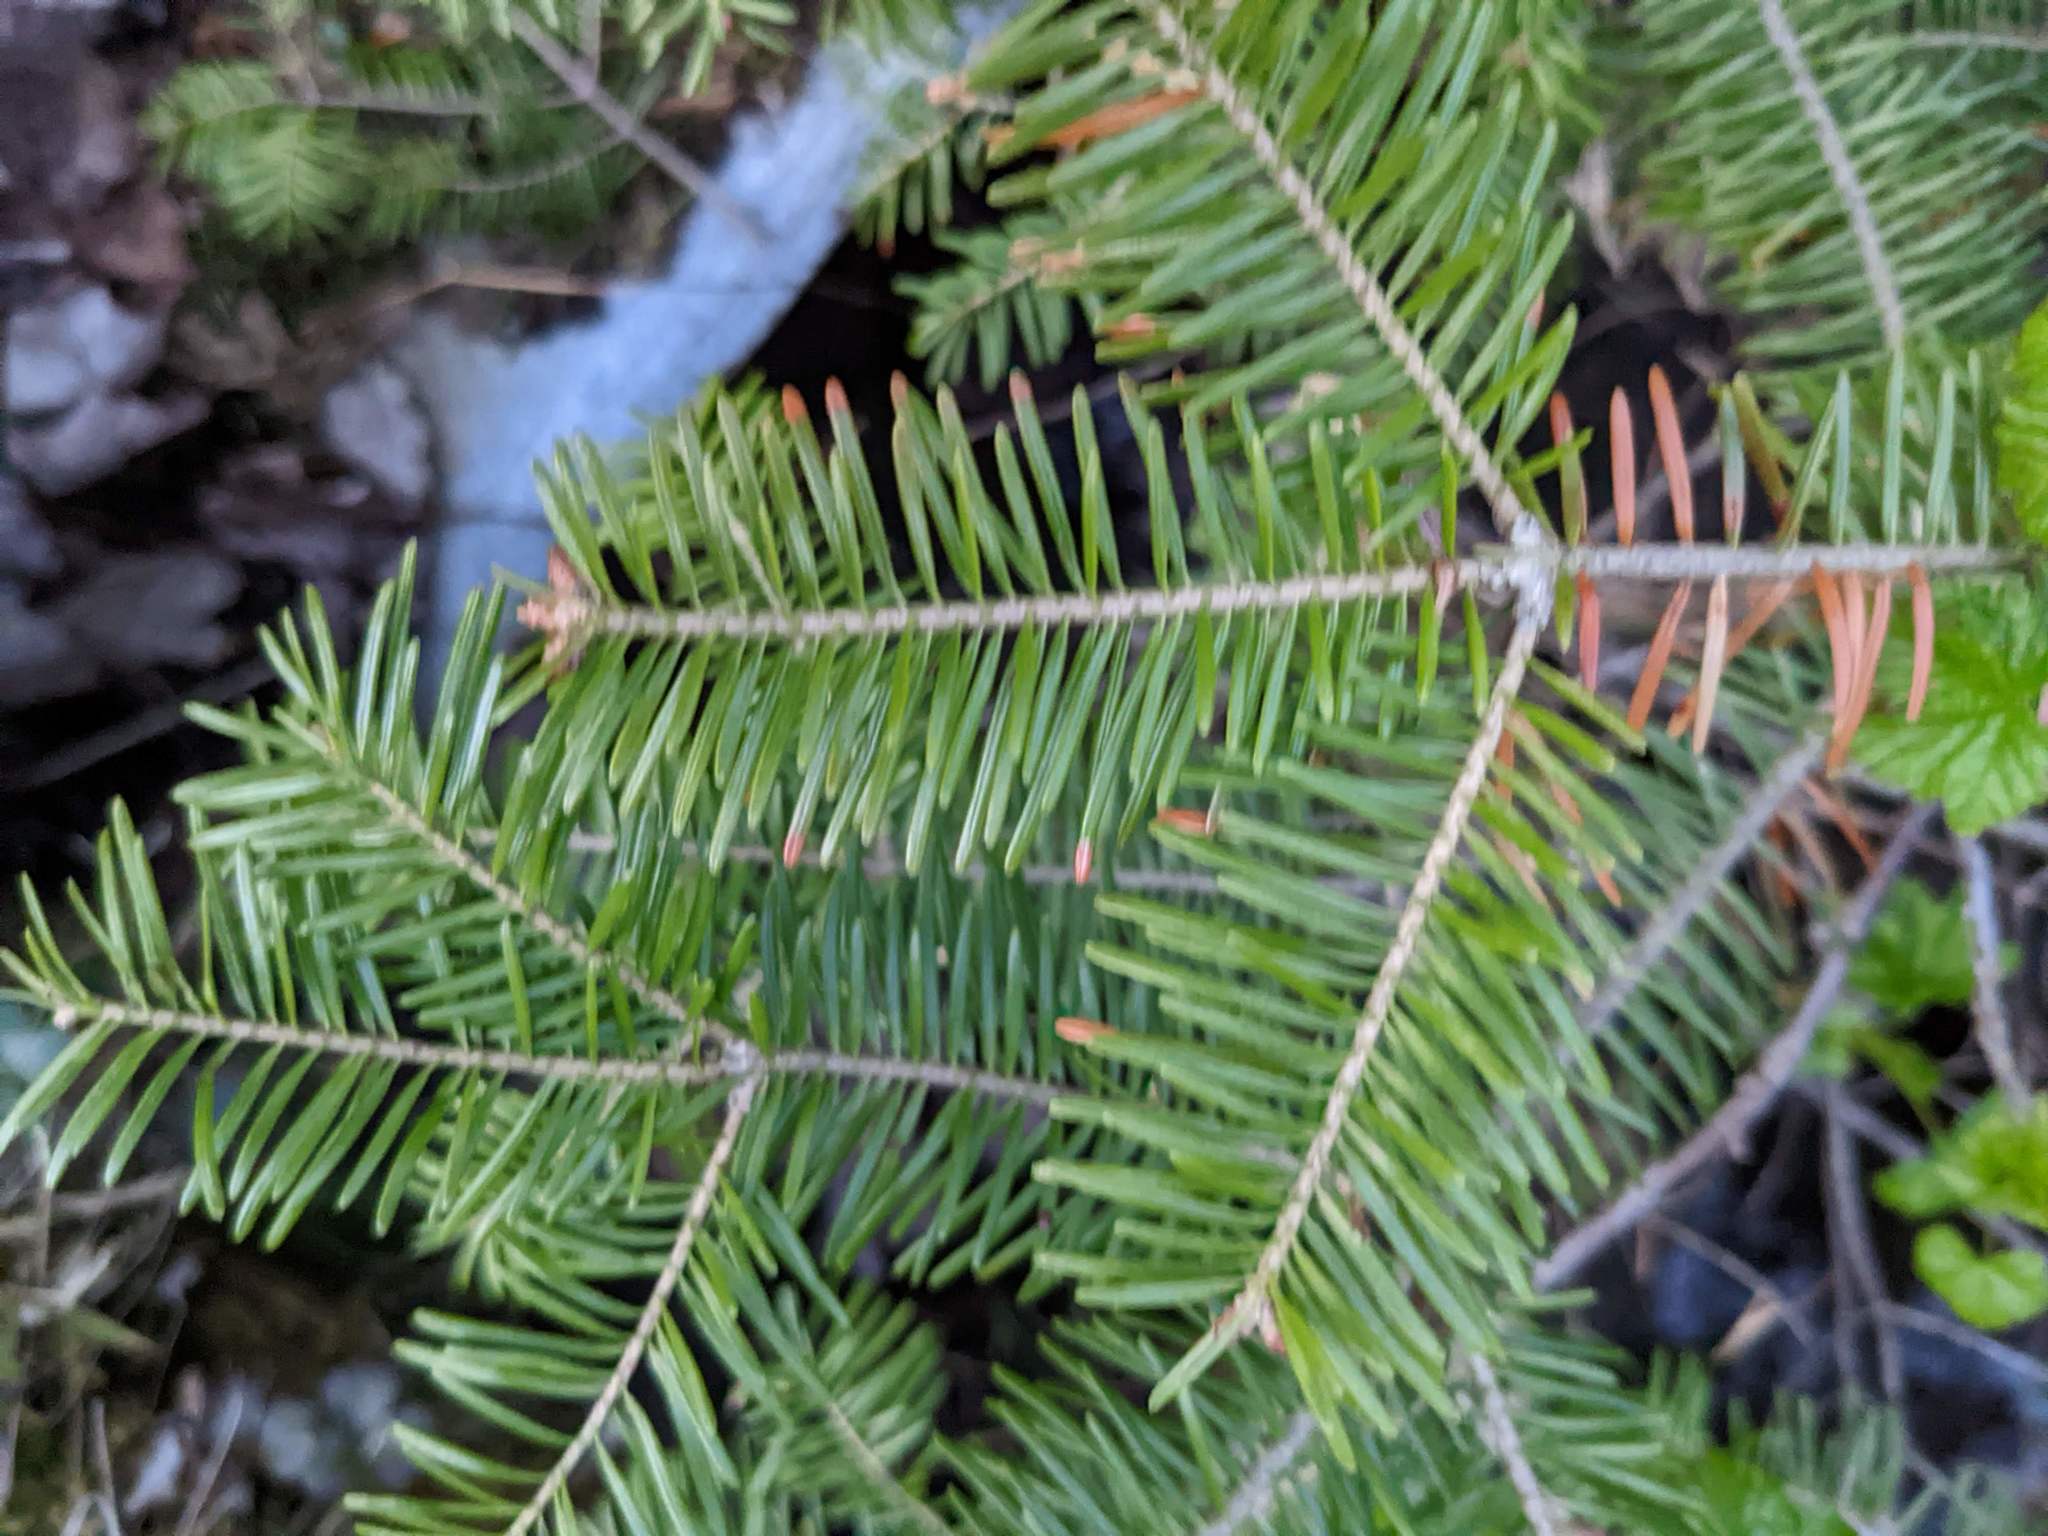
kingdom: Plantae
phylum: Tracheophyta
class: Pinopsida
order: Pinales
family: Pinaceae
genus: Abies
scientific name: Abies balsamea
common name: Balsam fir
